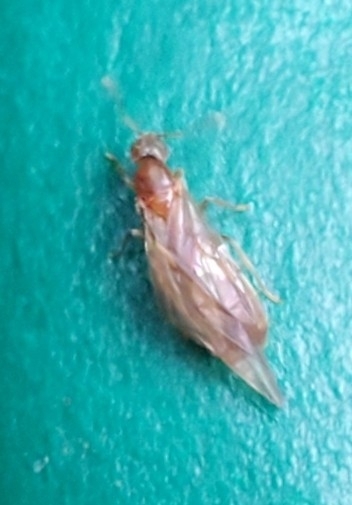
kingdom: Animalia
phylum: Arthropoda
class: Insecta
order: Hymenoptera
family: Formicidae
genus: Brachymyrmex
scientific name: Brachymyrmex depilis
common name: Hairless rover ant
